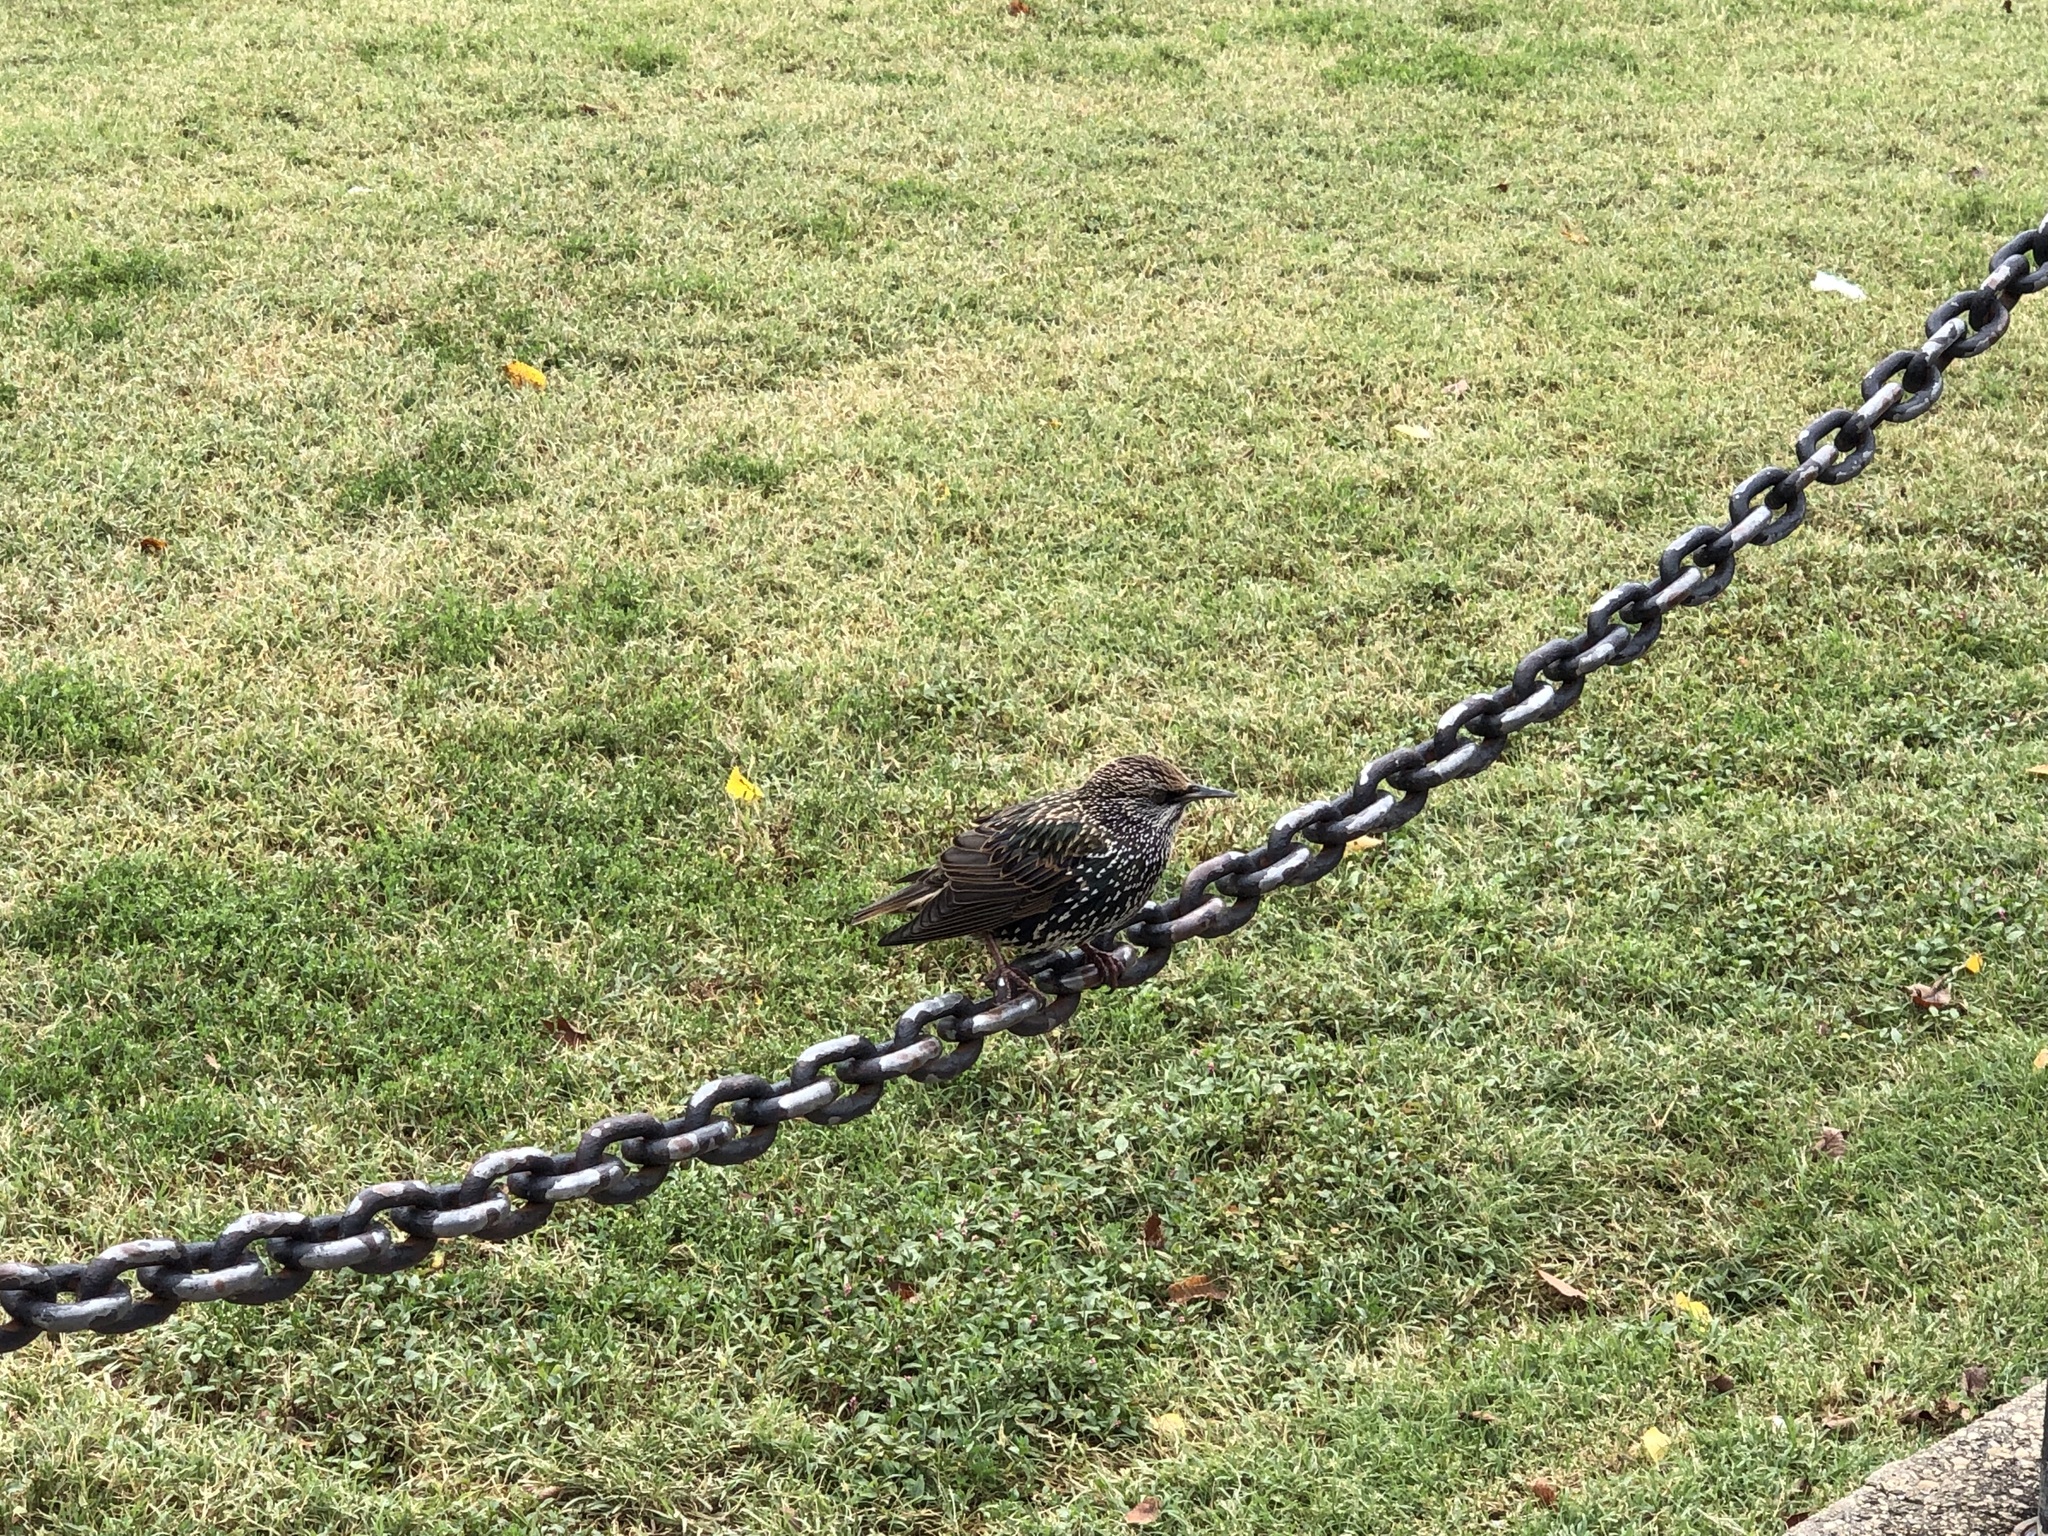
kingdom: Animalia
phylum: Chordata
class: Aves
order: Passeriformes
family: Sturnidae
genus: Sturnus
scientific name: Sturnus vulgaris
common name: Common starling
